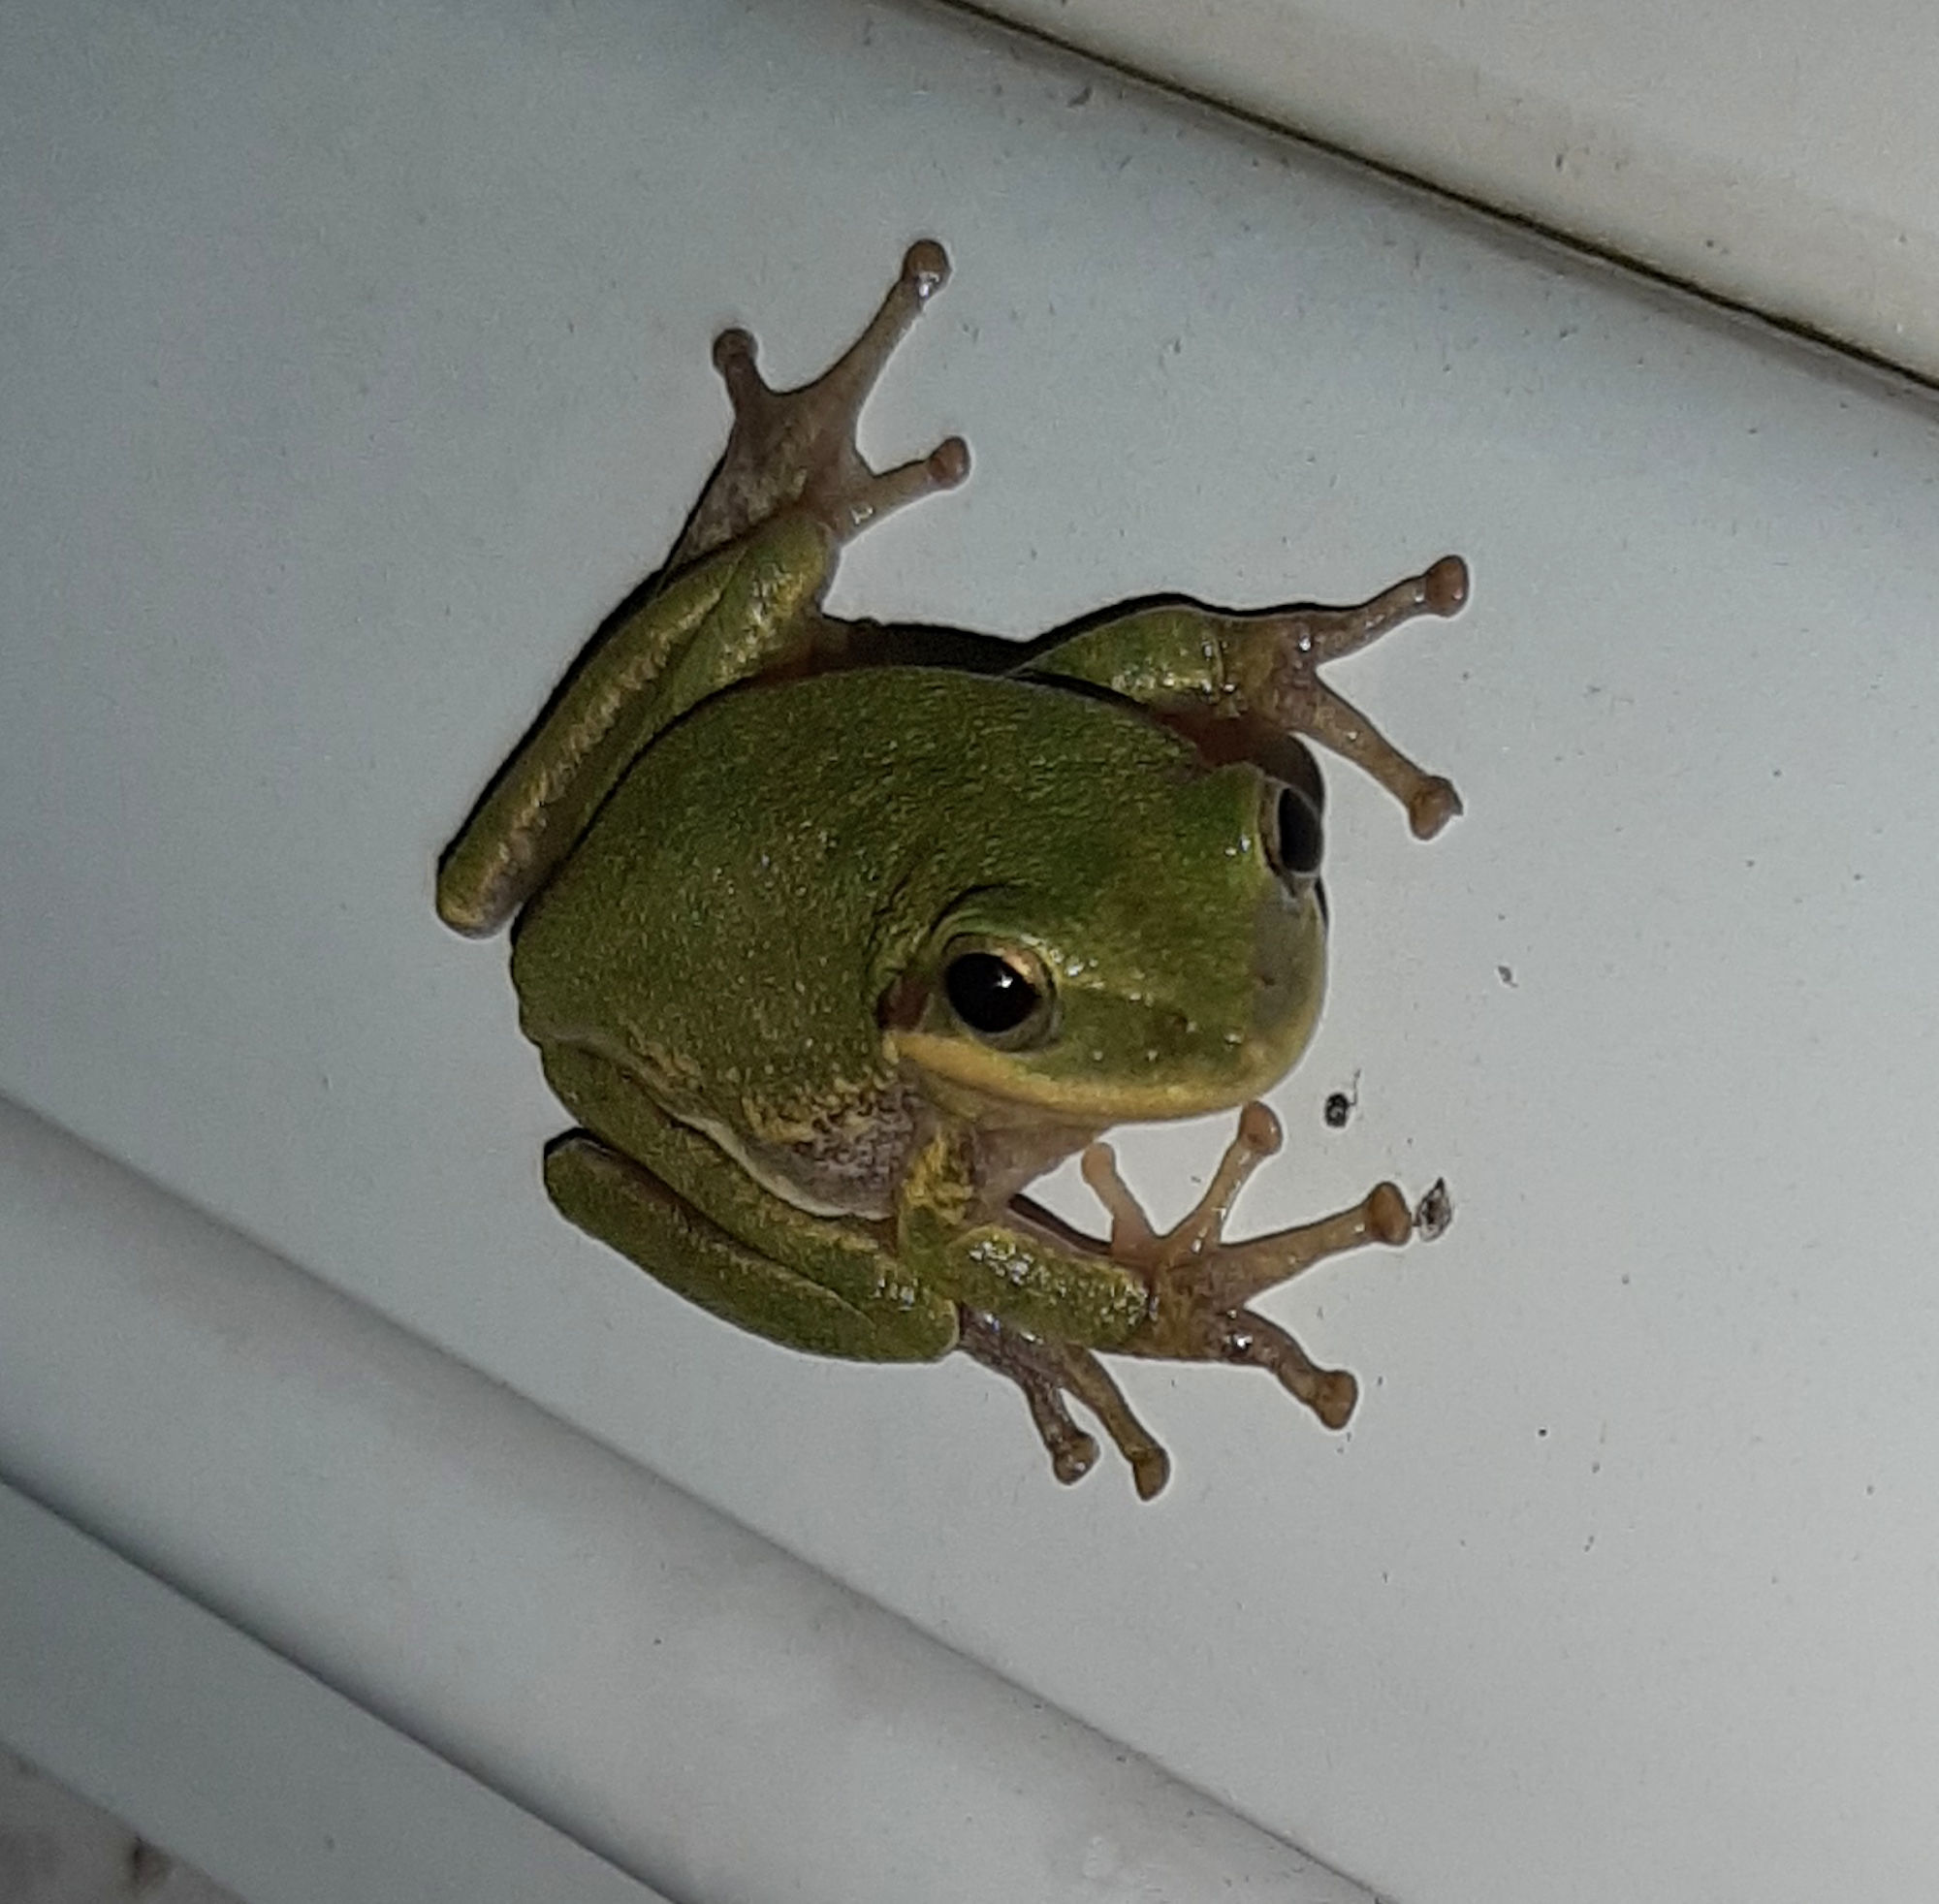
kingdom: Animalia
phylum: Chordata
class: Amphibia
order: Anura
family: Hylidae
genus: Dryophytes
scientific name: Dryophytes squirellus
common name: Squirrel treefrog
